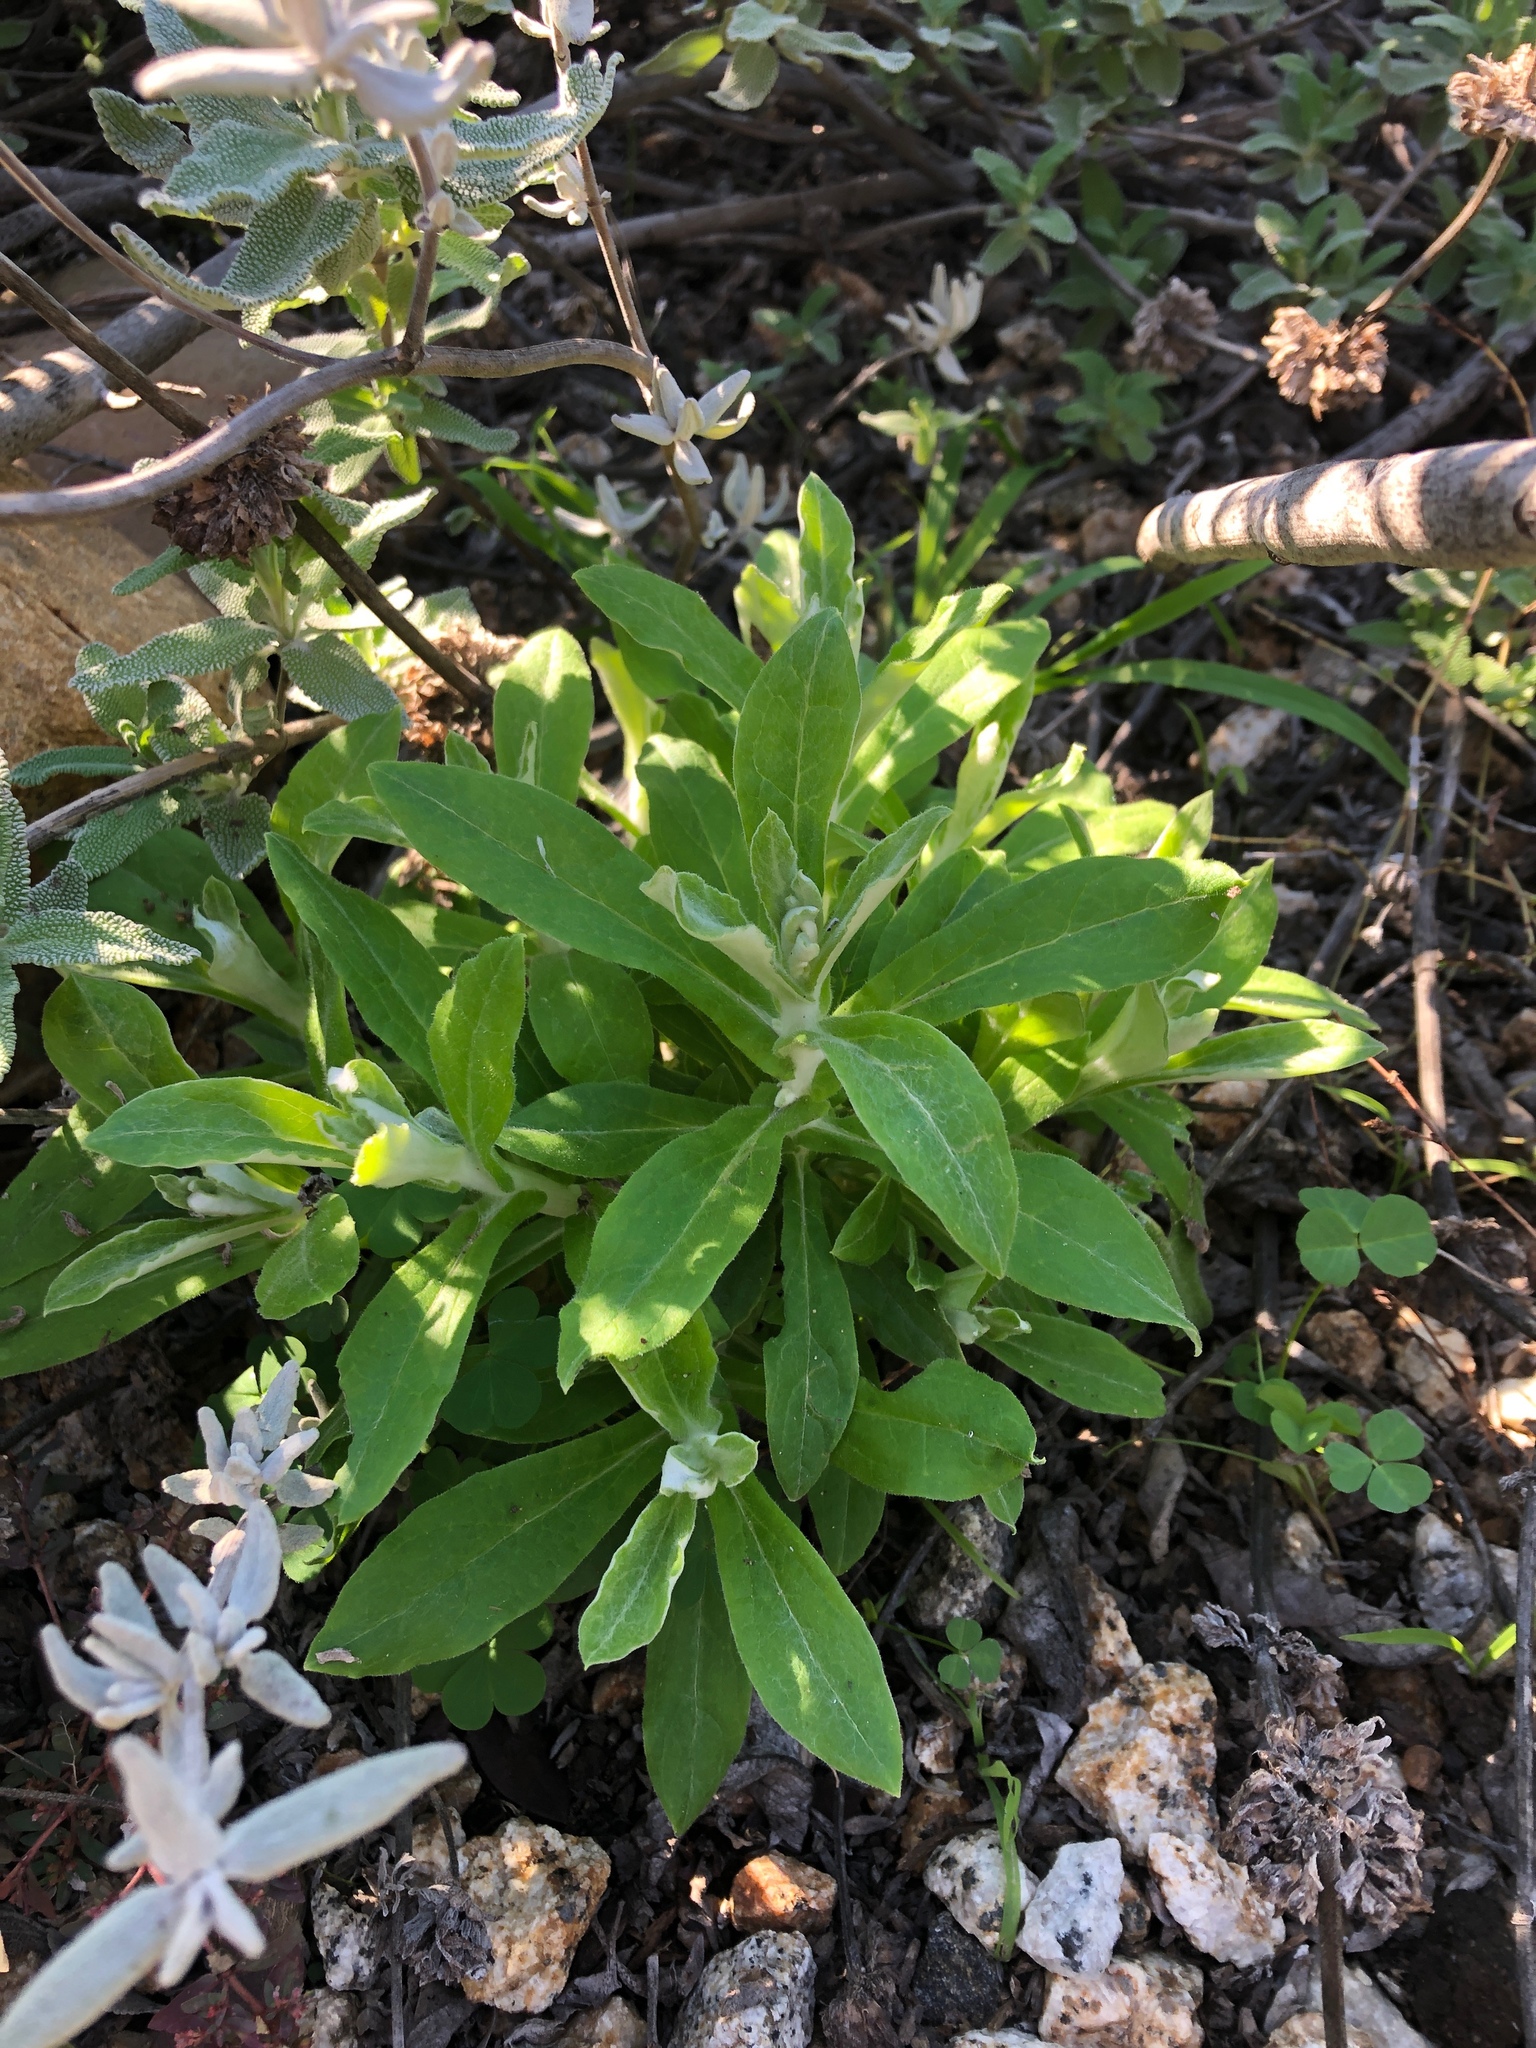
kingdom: Plantae
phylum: Tracheophyta
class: Magnoliopsida
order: Asterales
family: Asteraceae
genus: Pseudognaphalium
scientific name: Pseudognaphalium biolettii
